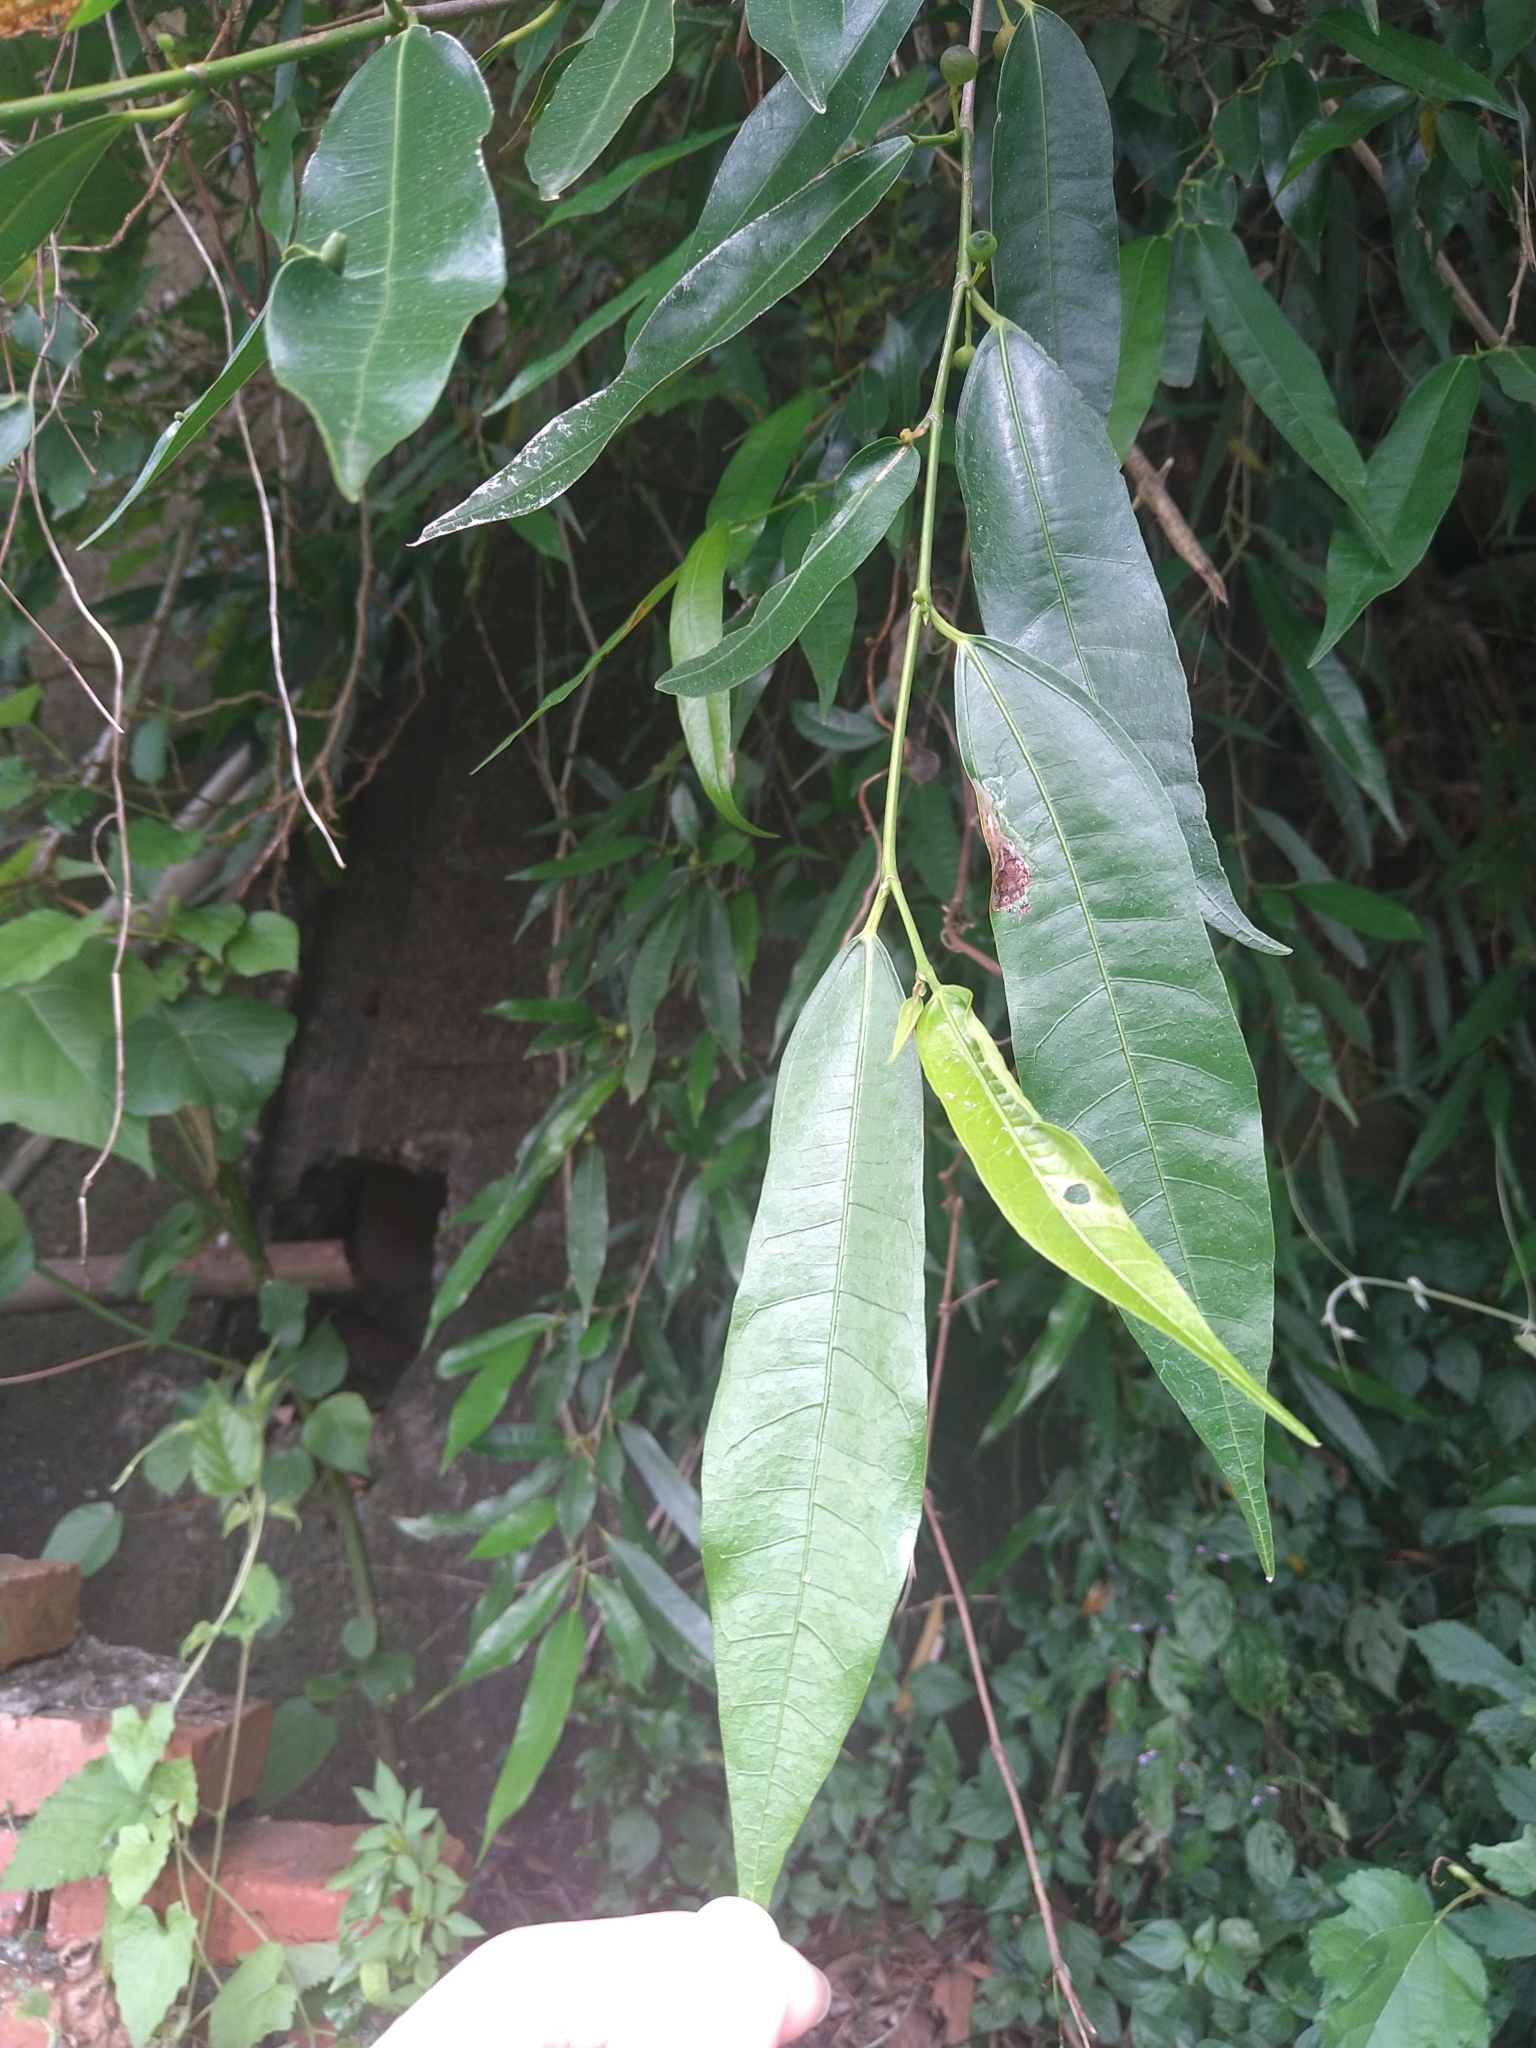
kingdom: Plantae
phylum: Tracheophyta
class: Magnoliopsida
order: Rosales
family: Moraceae
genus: Ficus
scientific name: Ficus ampelos
